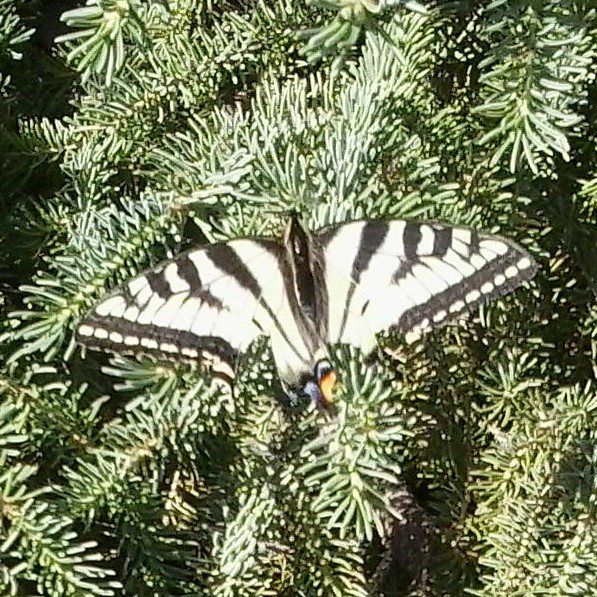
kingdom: Animalia
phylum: Arthropoda
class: Insecta
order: Lepidoptera
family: Papilionidae
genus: Papilio
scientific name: Papilio canadensis
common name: Canadian tiger swallowtail
